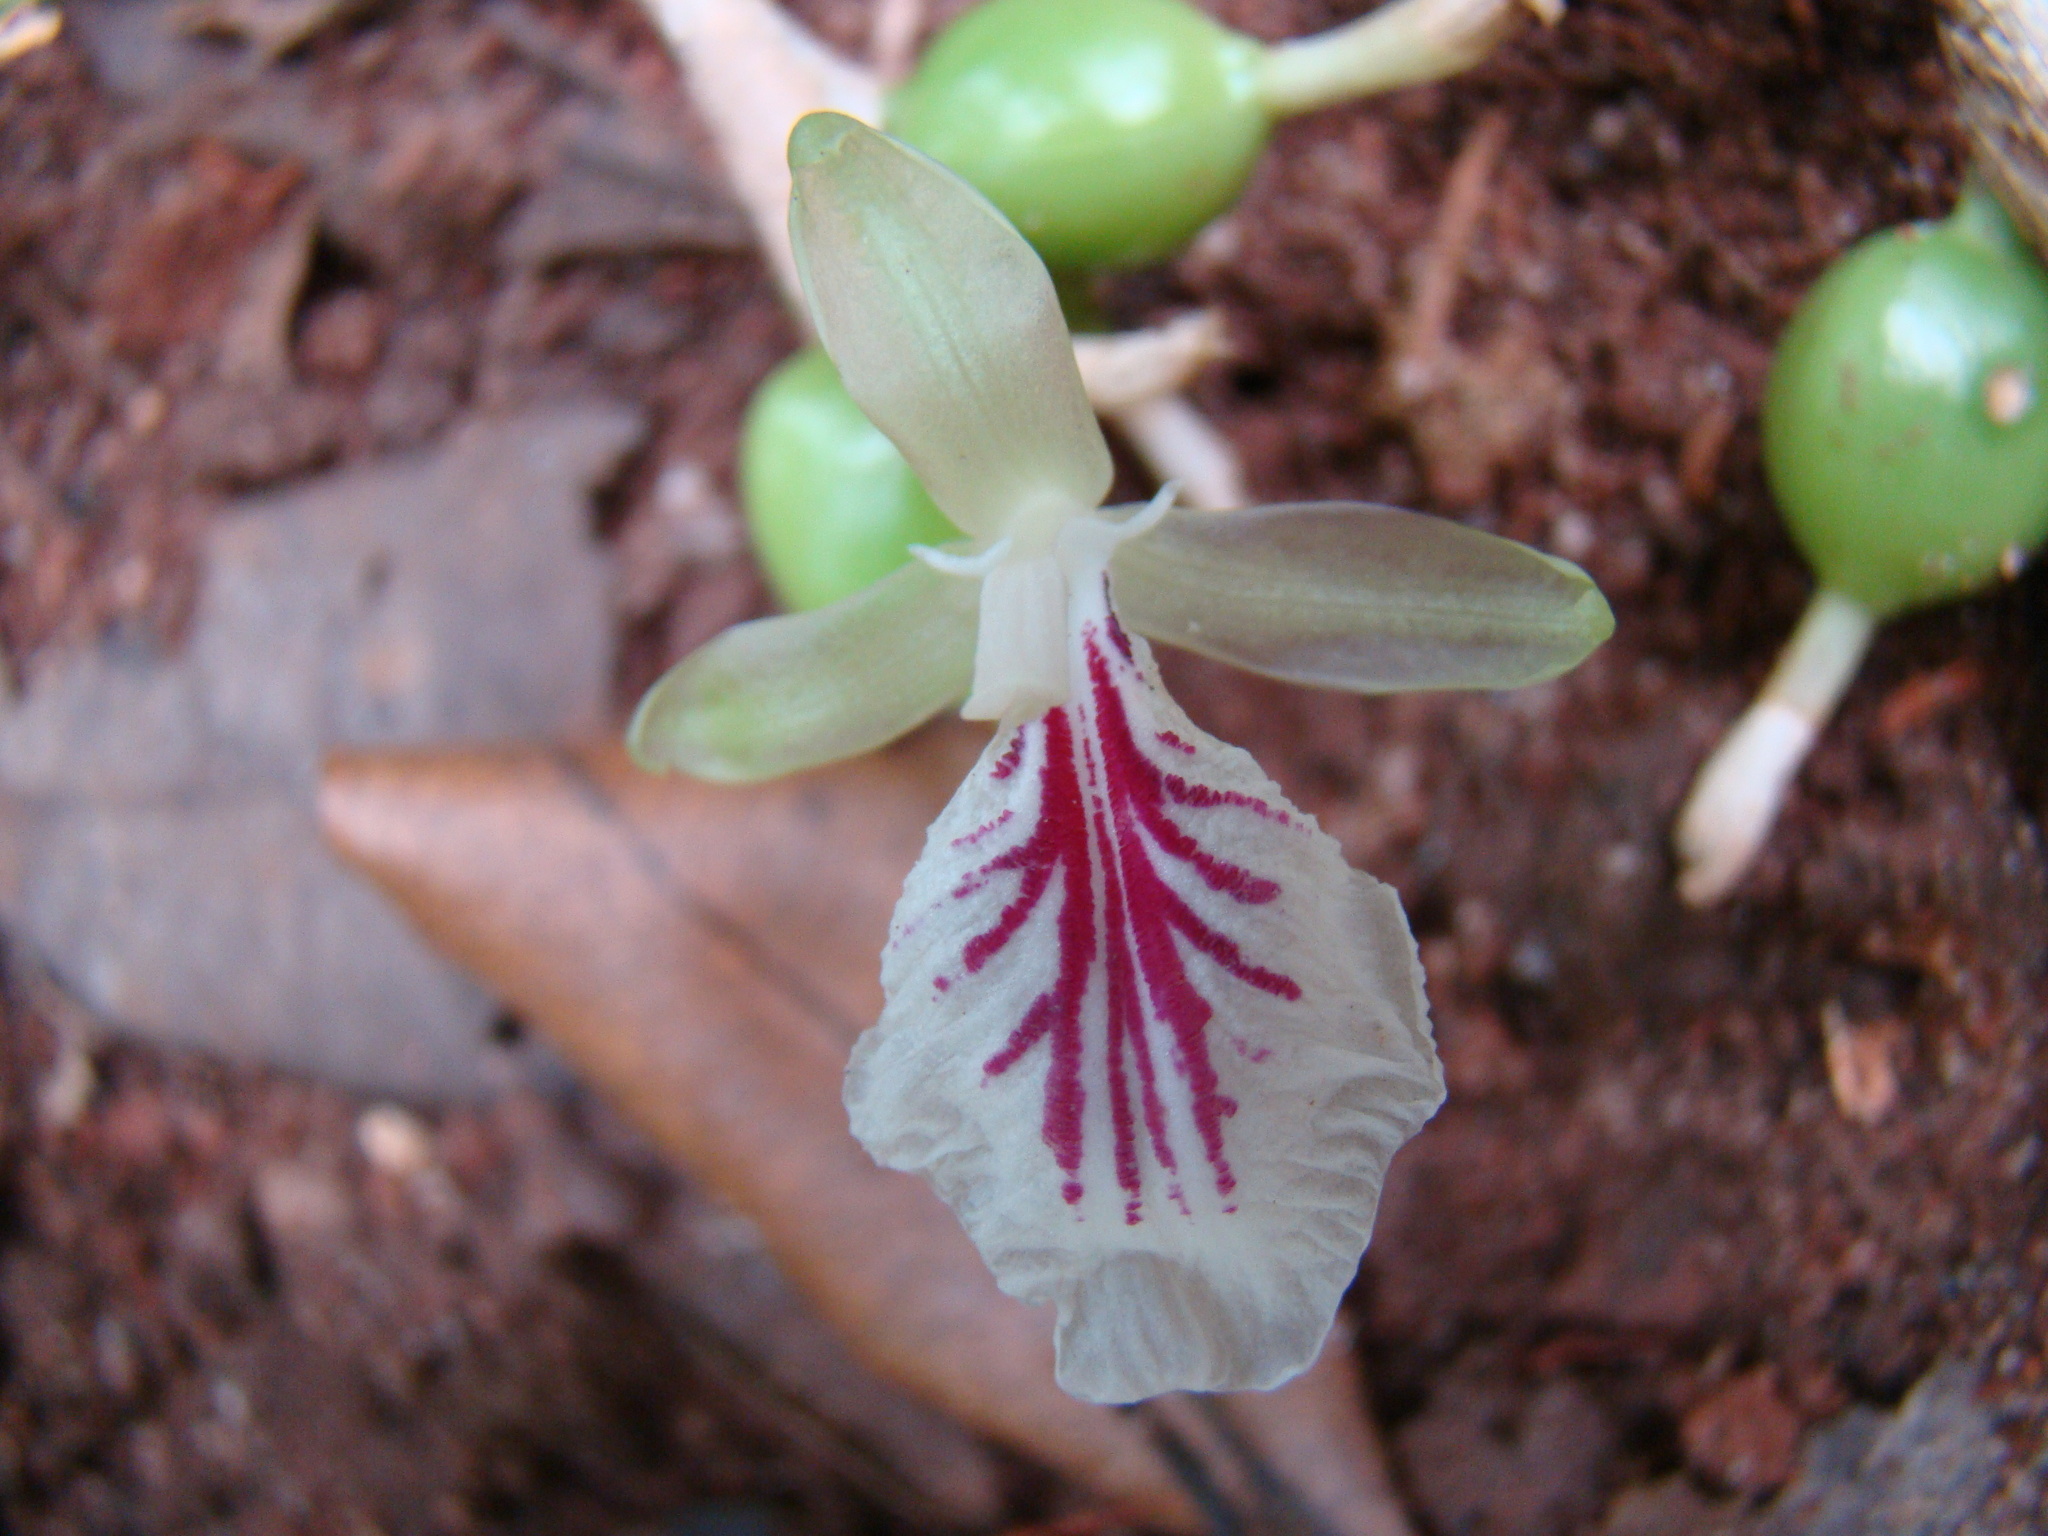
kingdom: Plantae
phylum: Tracheophyta
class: Liliopsida
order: Zingiberales
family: Zingiberaceae
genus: Elettaria
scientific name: Elettaria cardamomum
